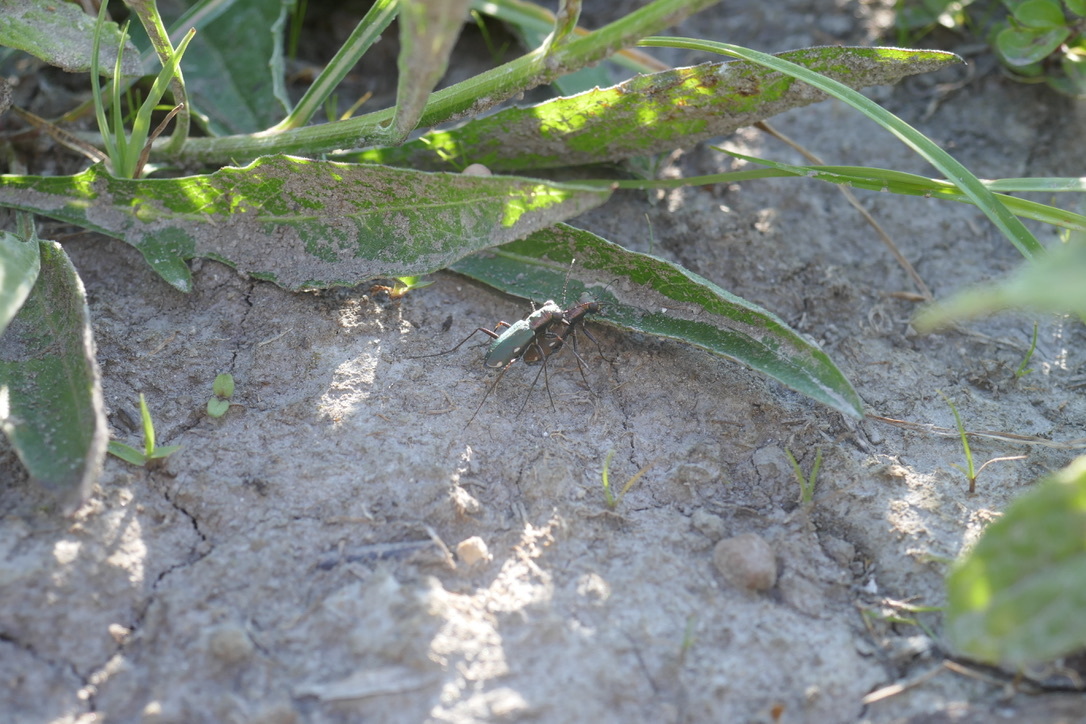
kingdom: Animalia
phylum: Arthropoda
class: Insecta
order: Coleoptera
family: Carabidae
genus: Cylindera
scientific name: Cylindera germanica
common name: Cliff tiger beetle
